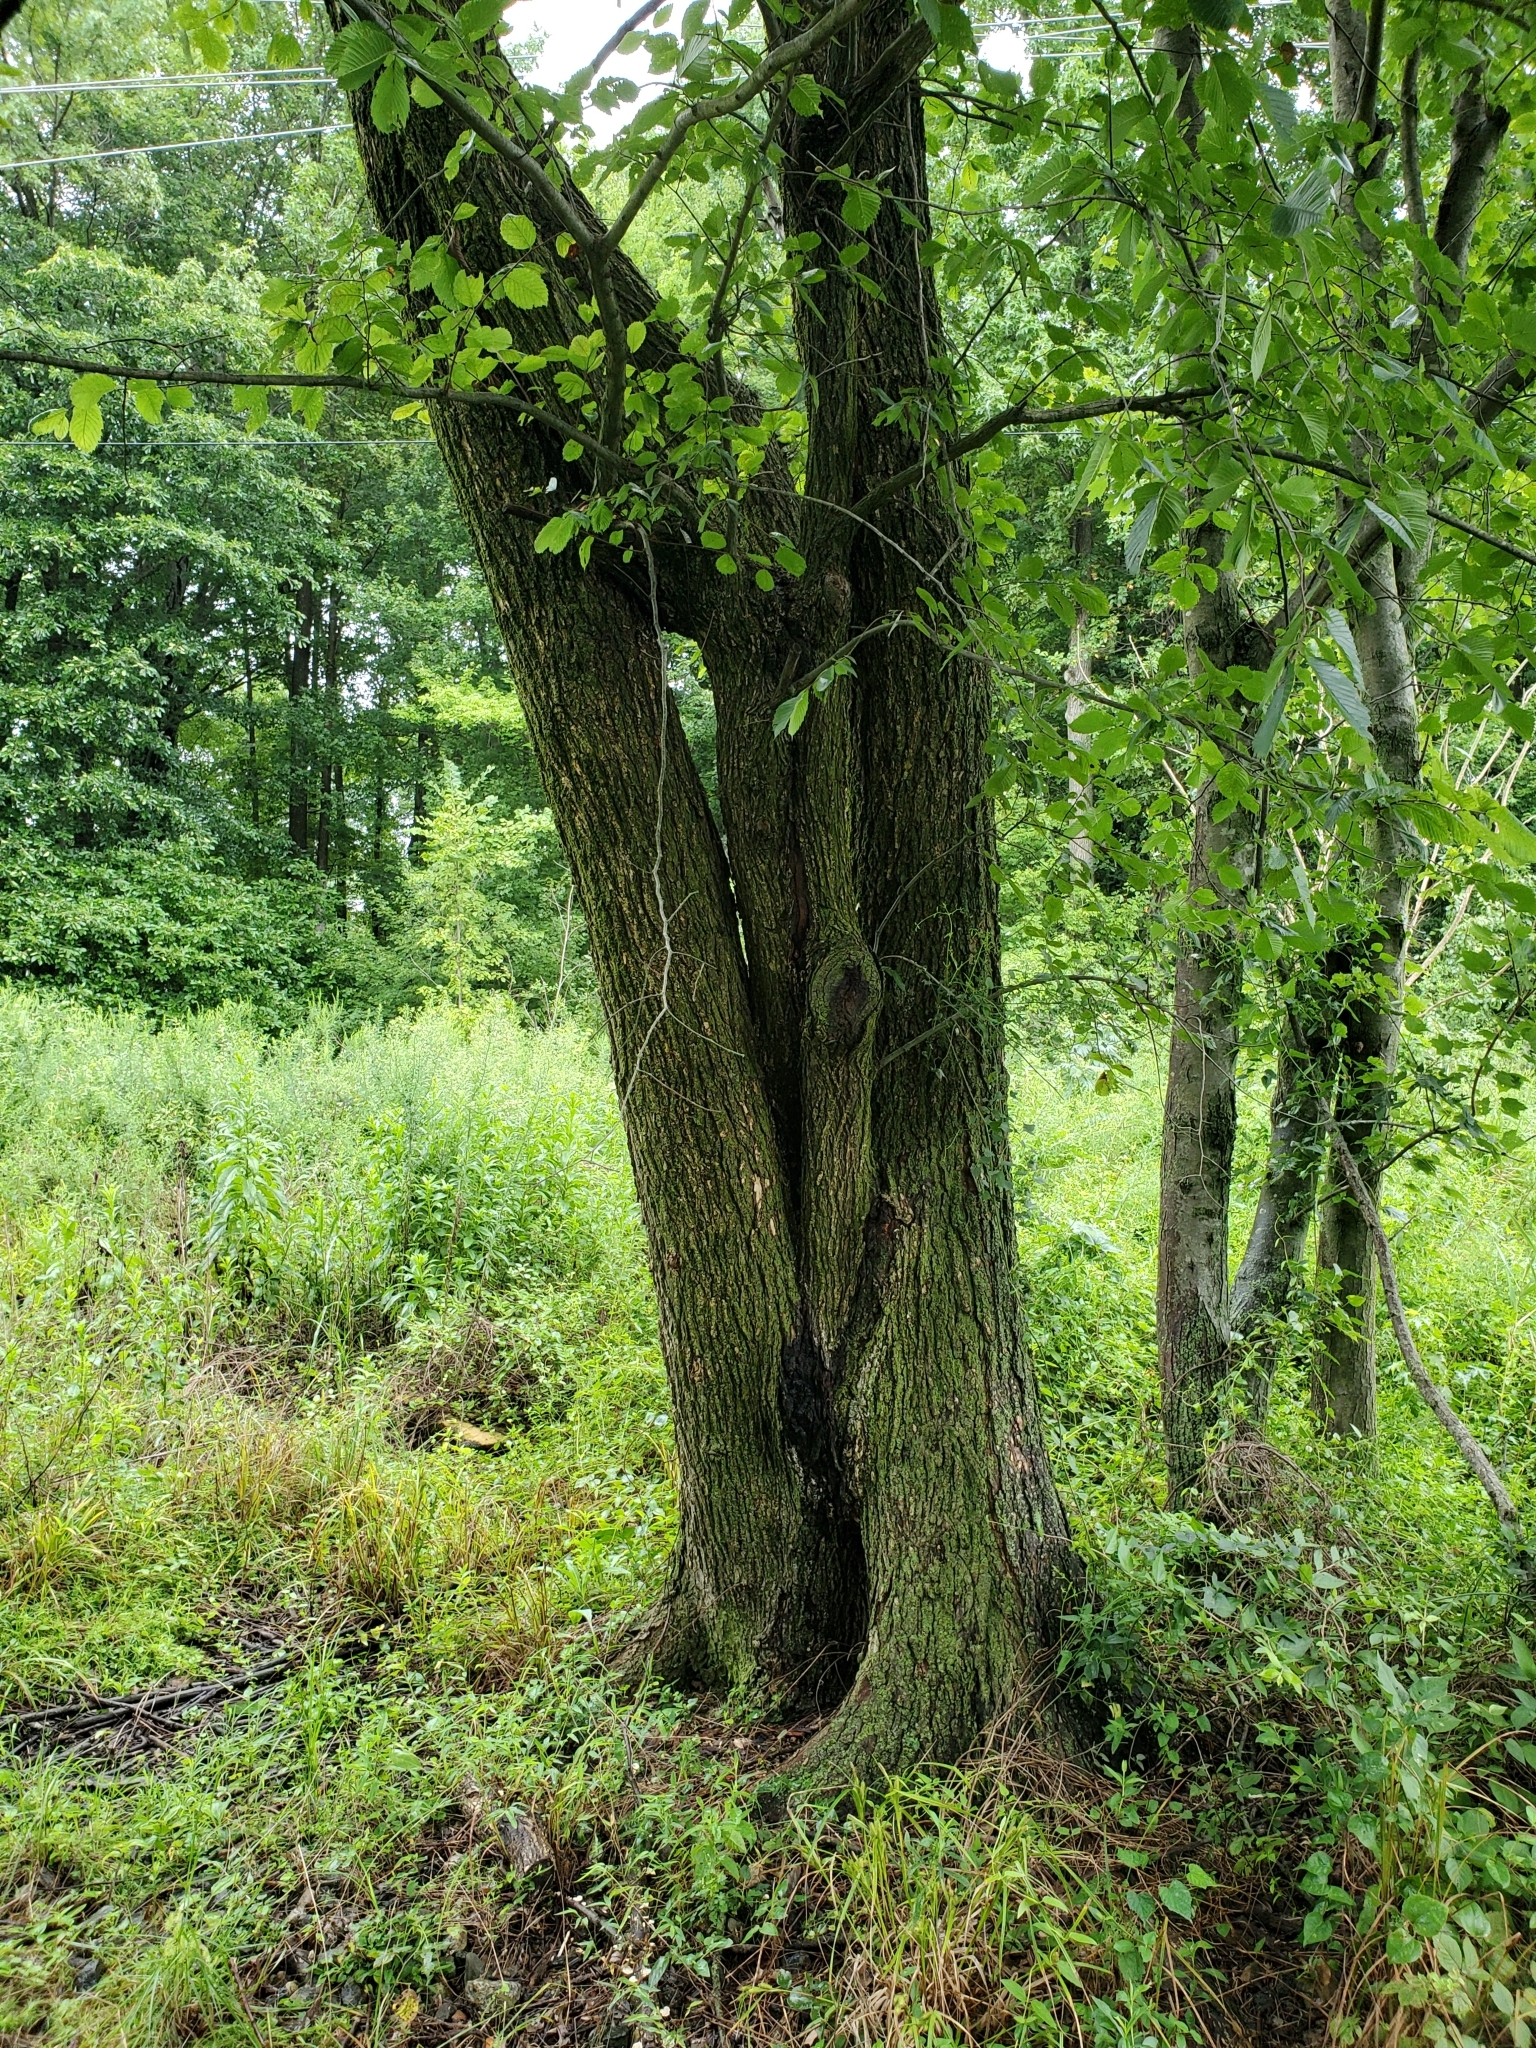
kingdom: Plantae
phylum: Tracheophyta
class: Magnoliopsida
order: Rosales
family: Ulmaceae
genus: Ulmus
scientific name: Ulmus americana
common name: American elm
